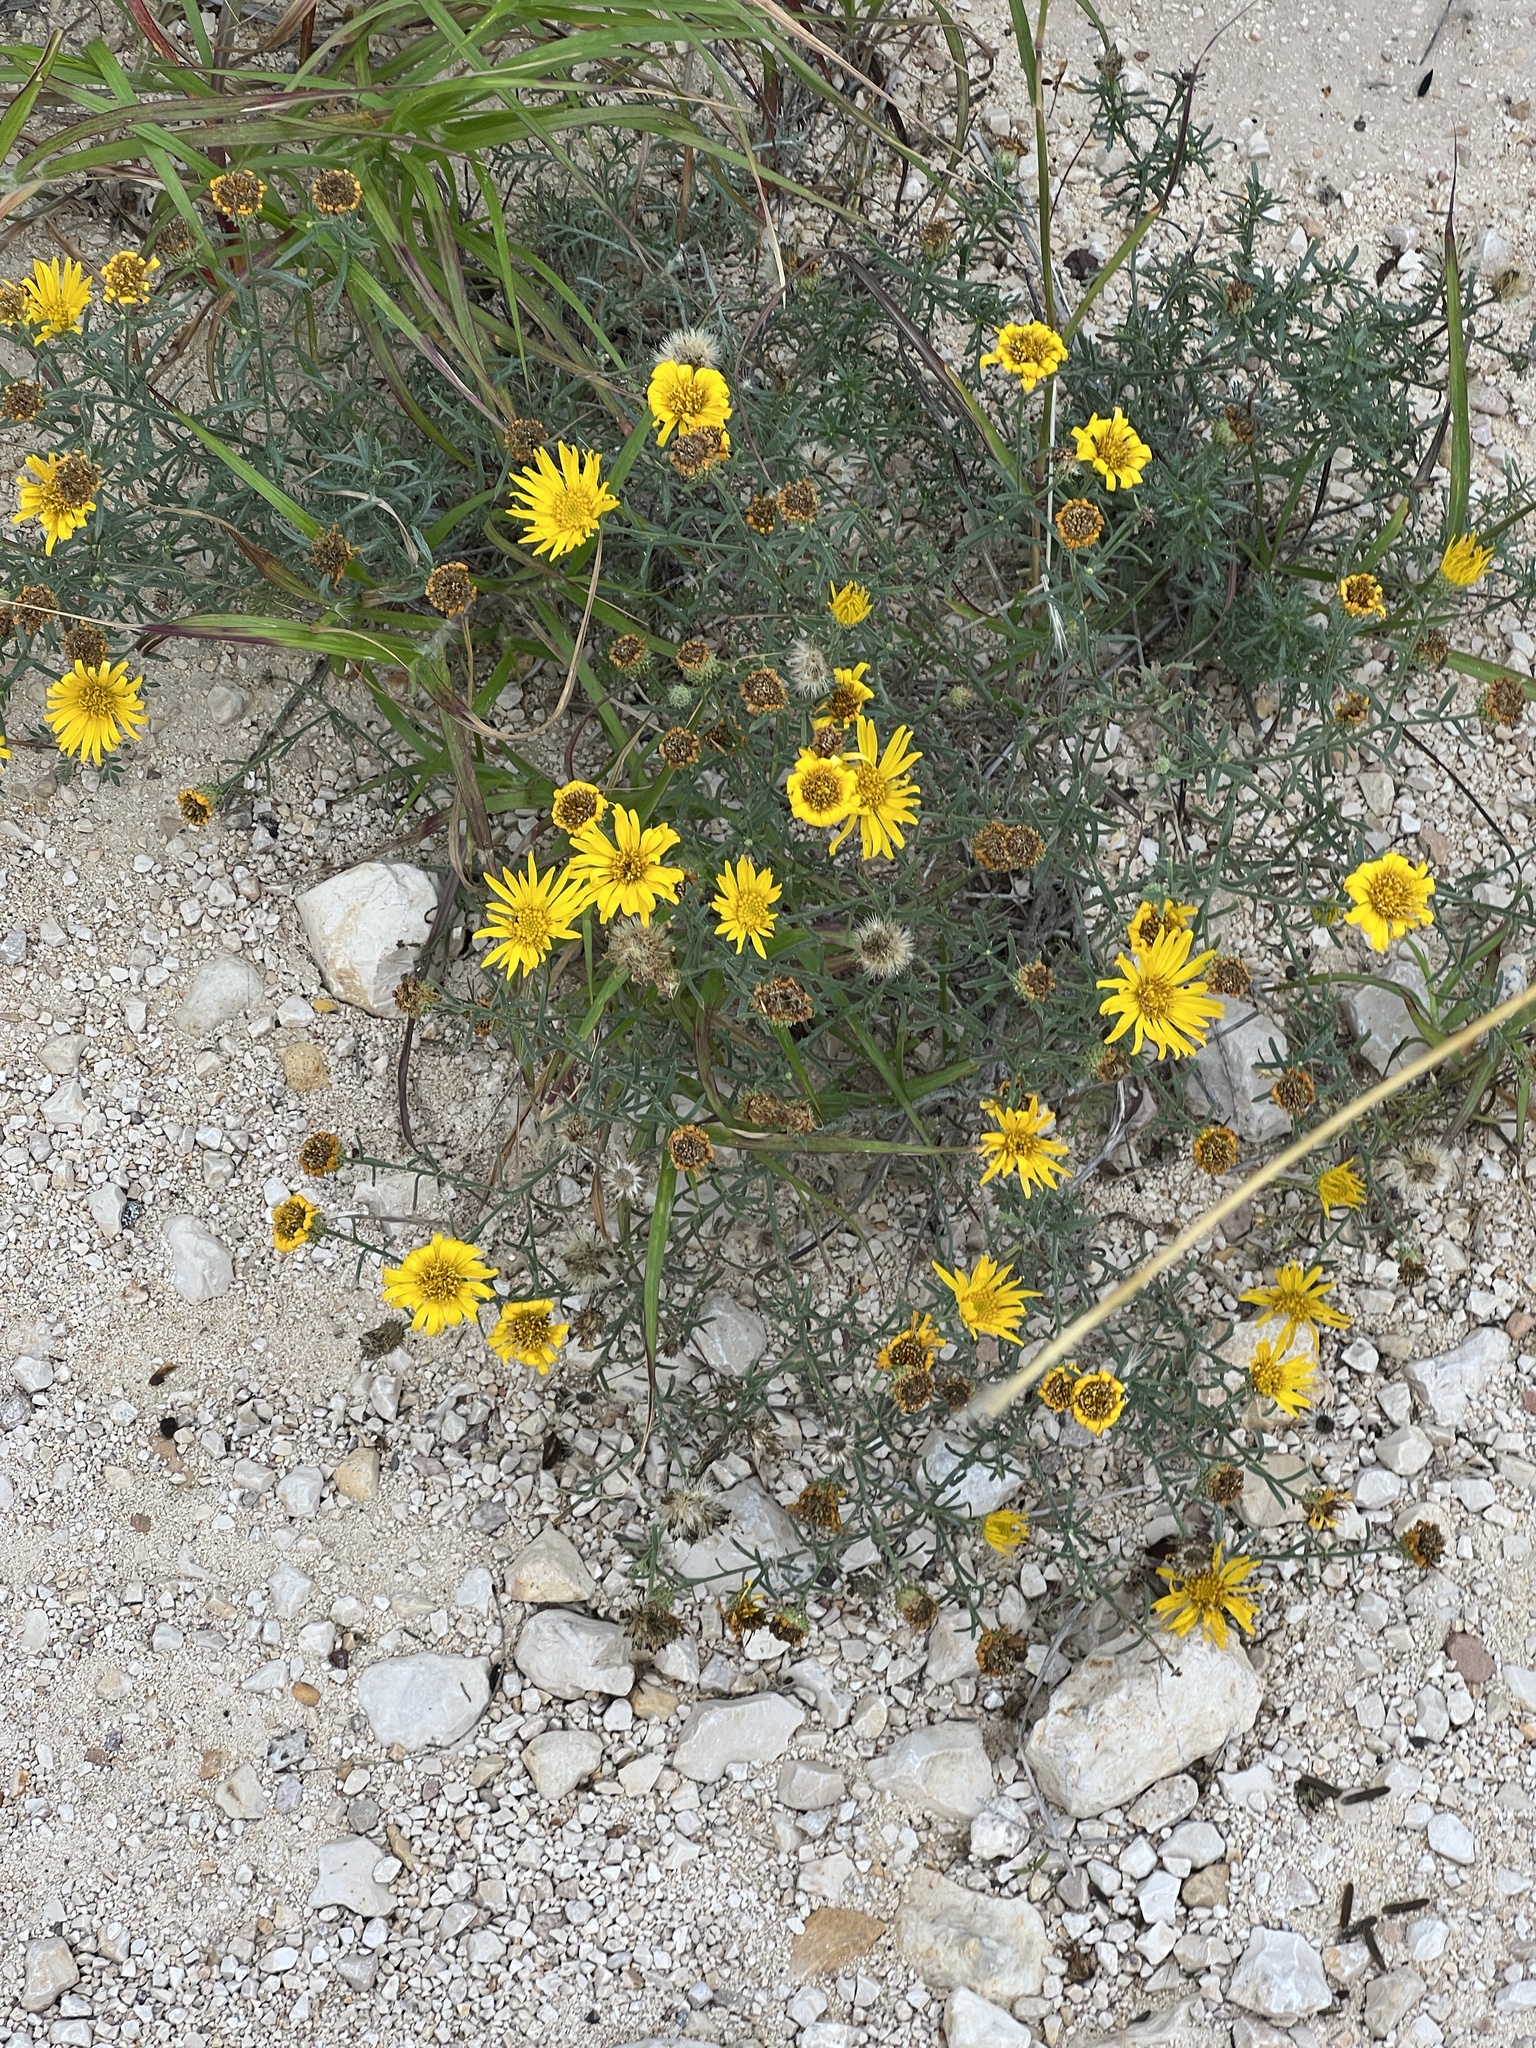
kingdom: Plantae
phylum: Tracheophyta
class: Magnoliopsida
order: Asterales
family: Asteraceae
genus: Xanthisma
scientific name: Xanthisma spinulosum
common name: Spiny goldenweed
